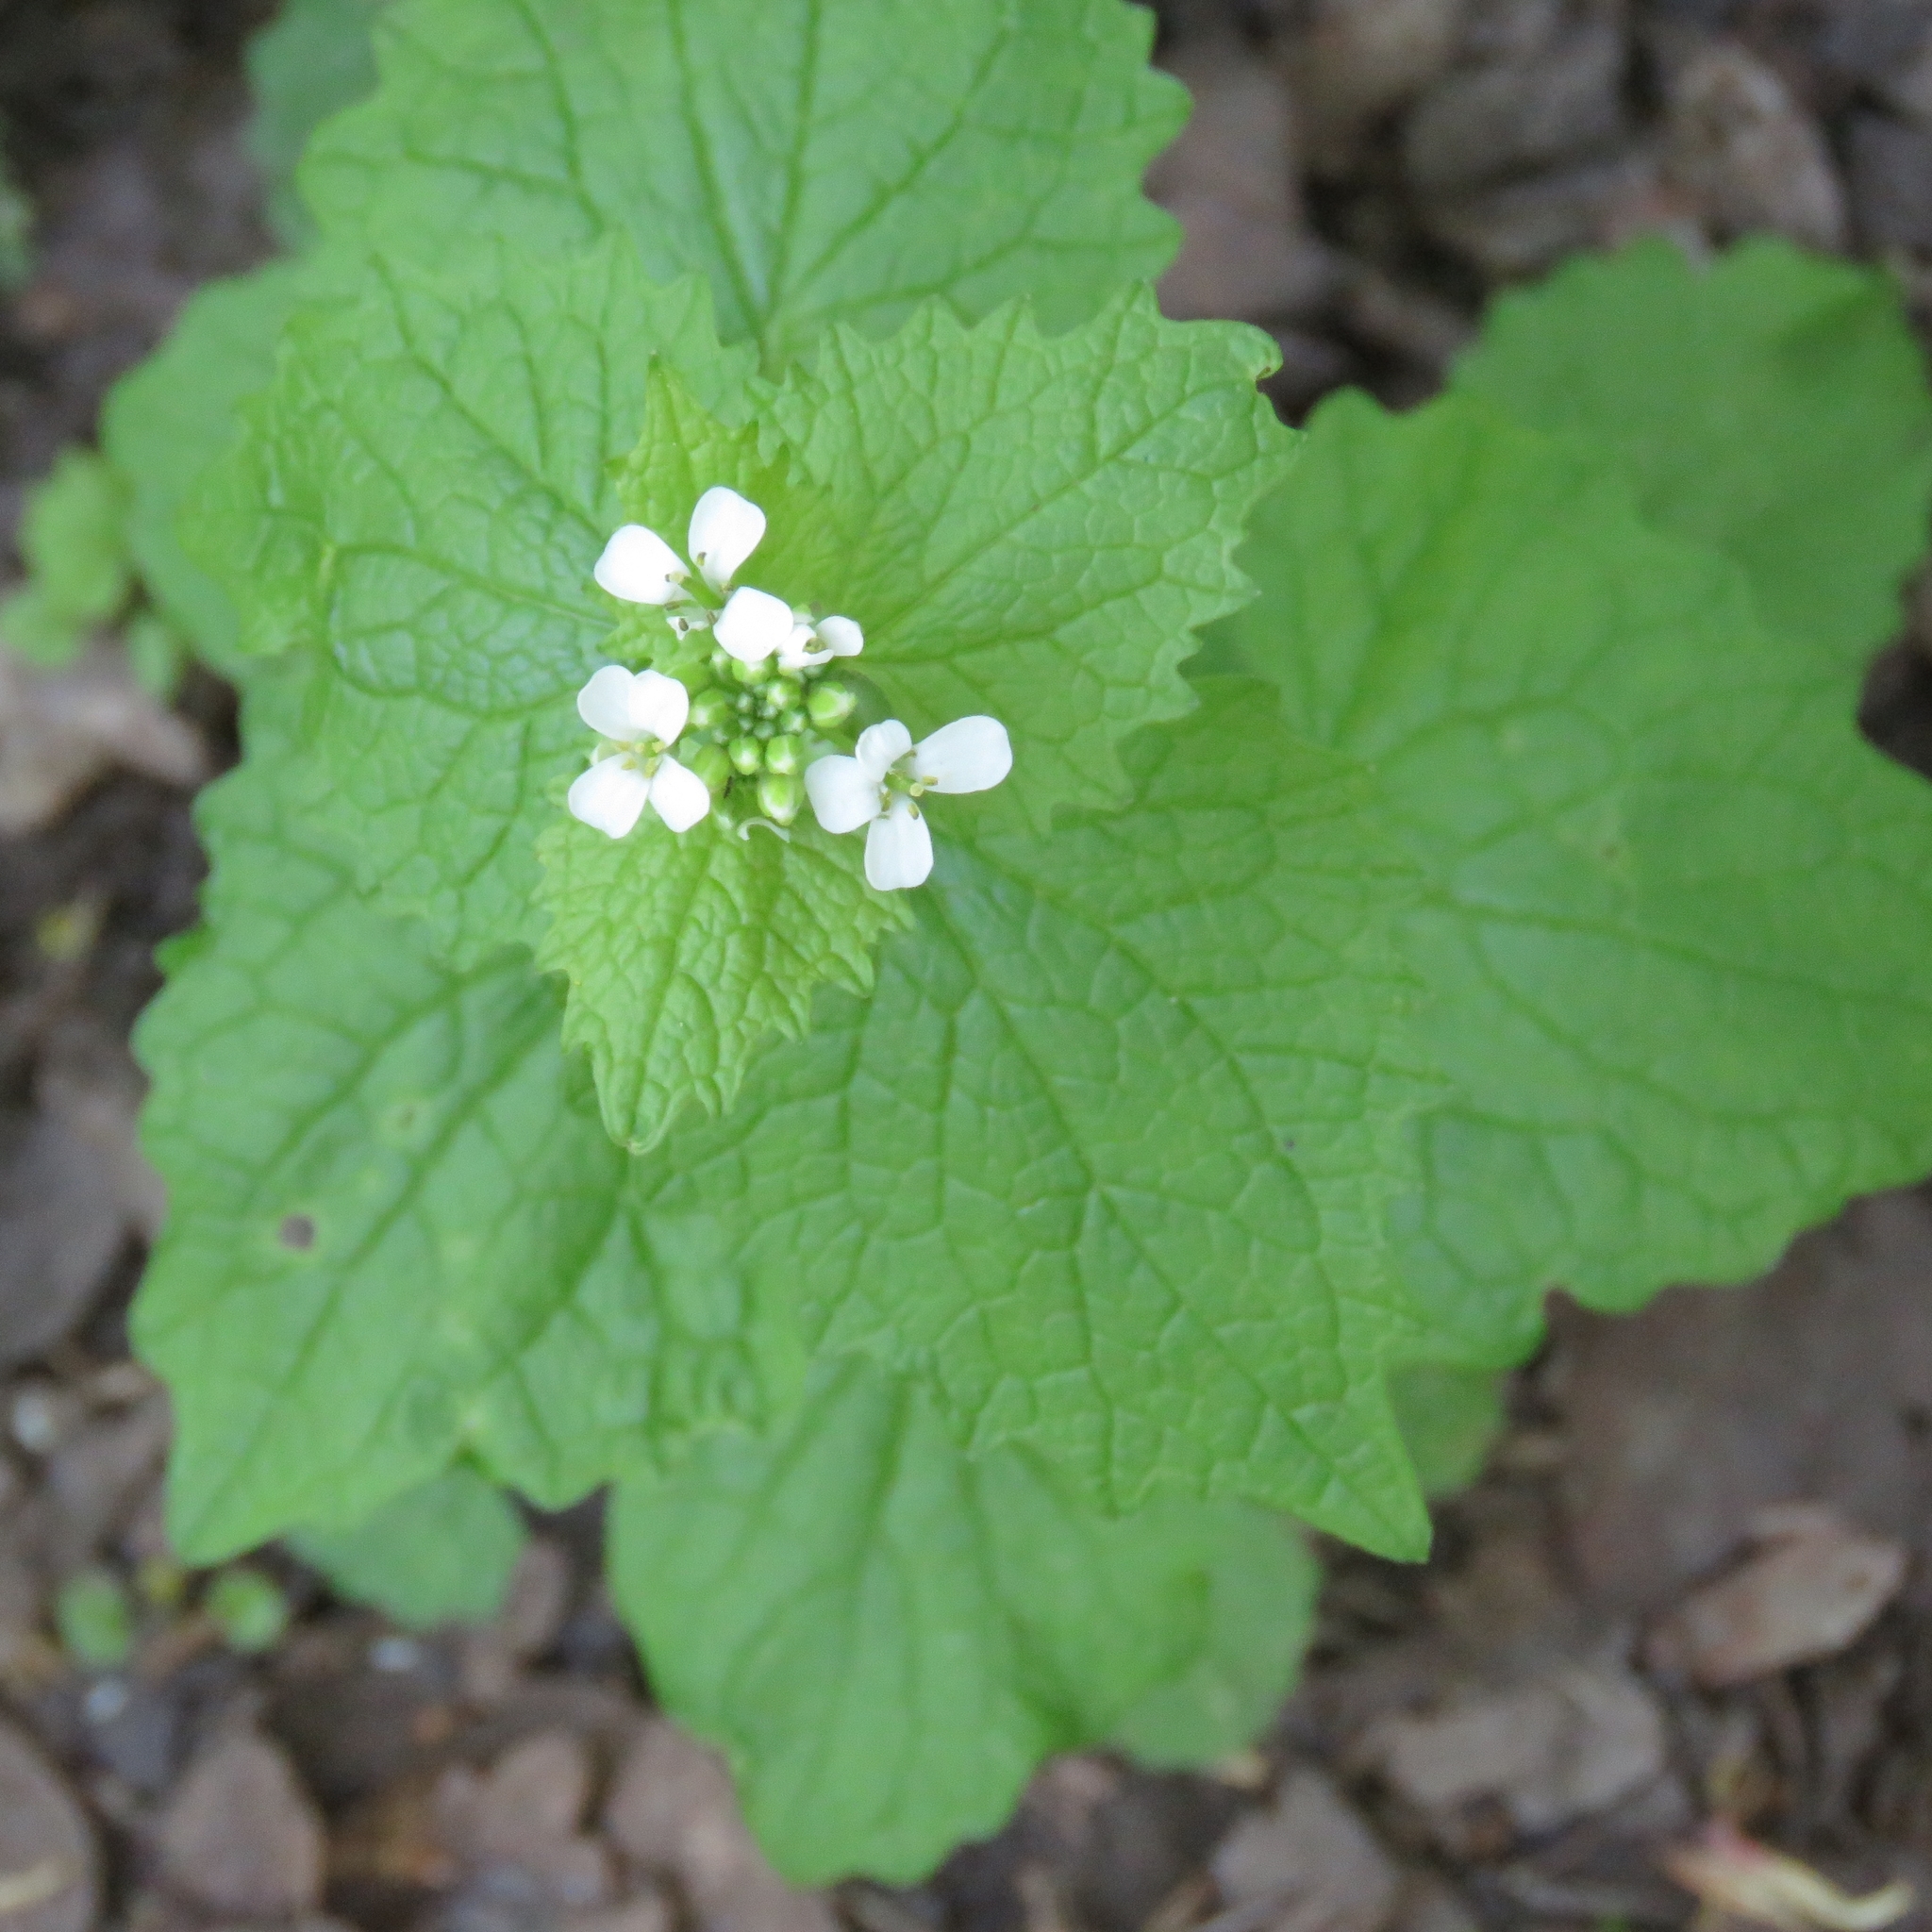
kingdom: Plantae
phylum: Tracheophyta
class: Magnoliopsida
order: Brassicales
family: Brassicaceae
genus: Alliaria
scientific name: Alliaria petiolata
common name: Garlic mustard
